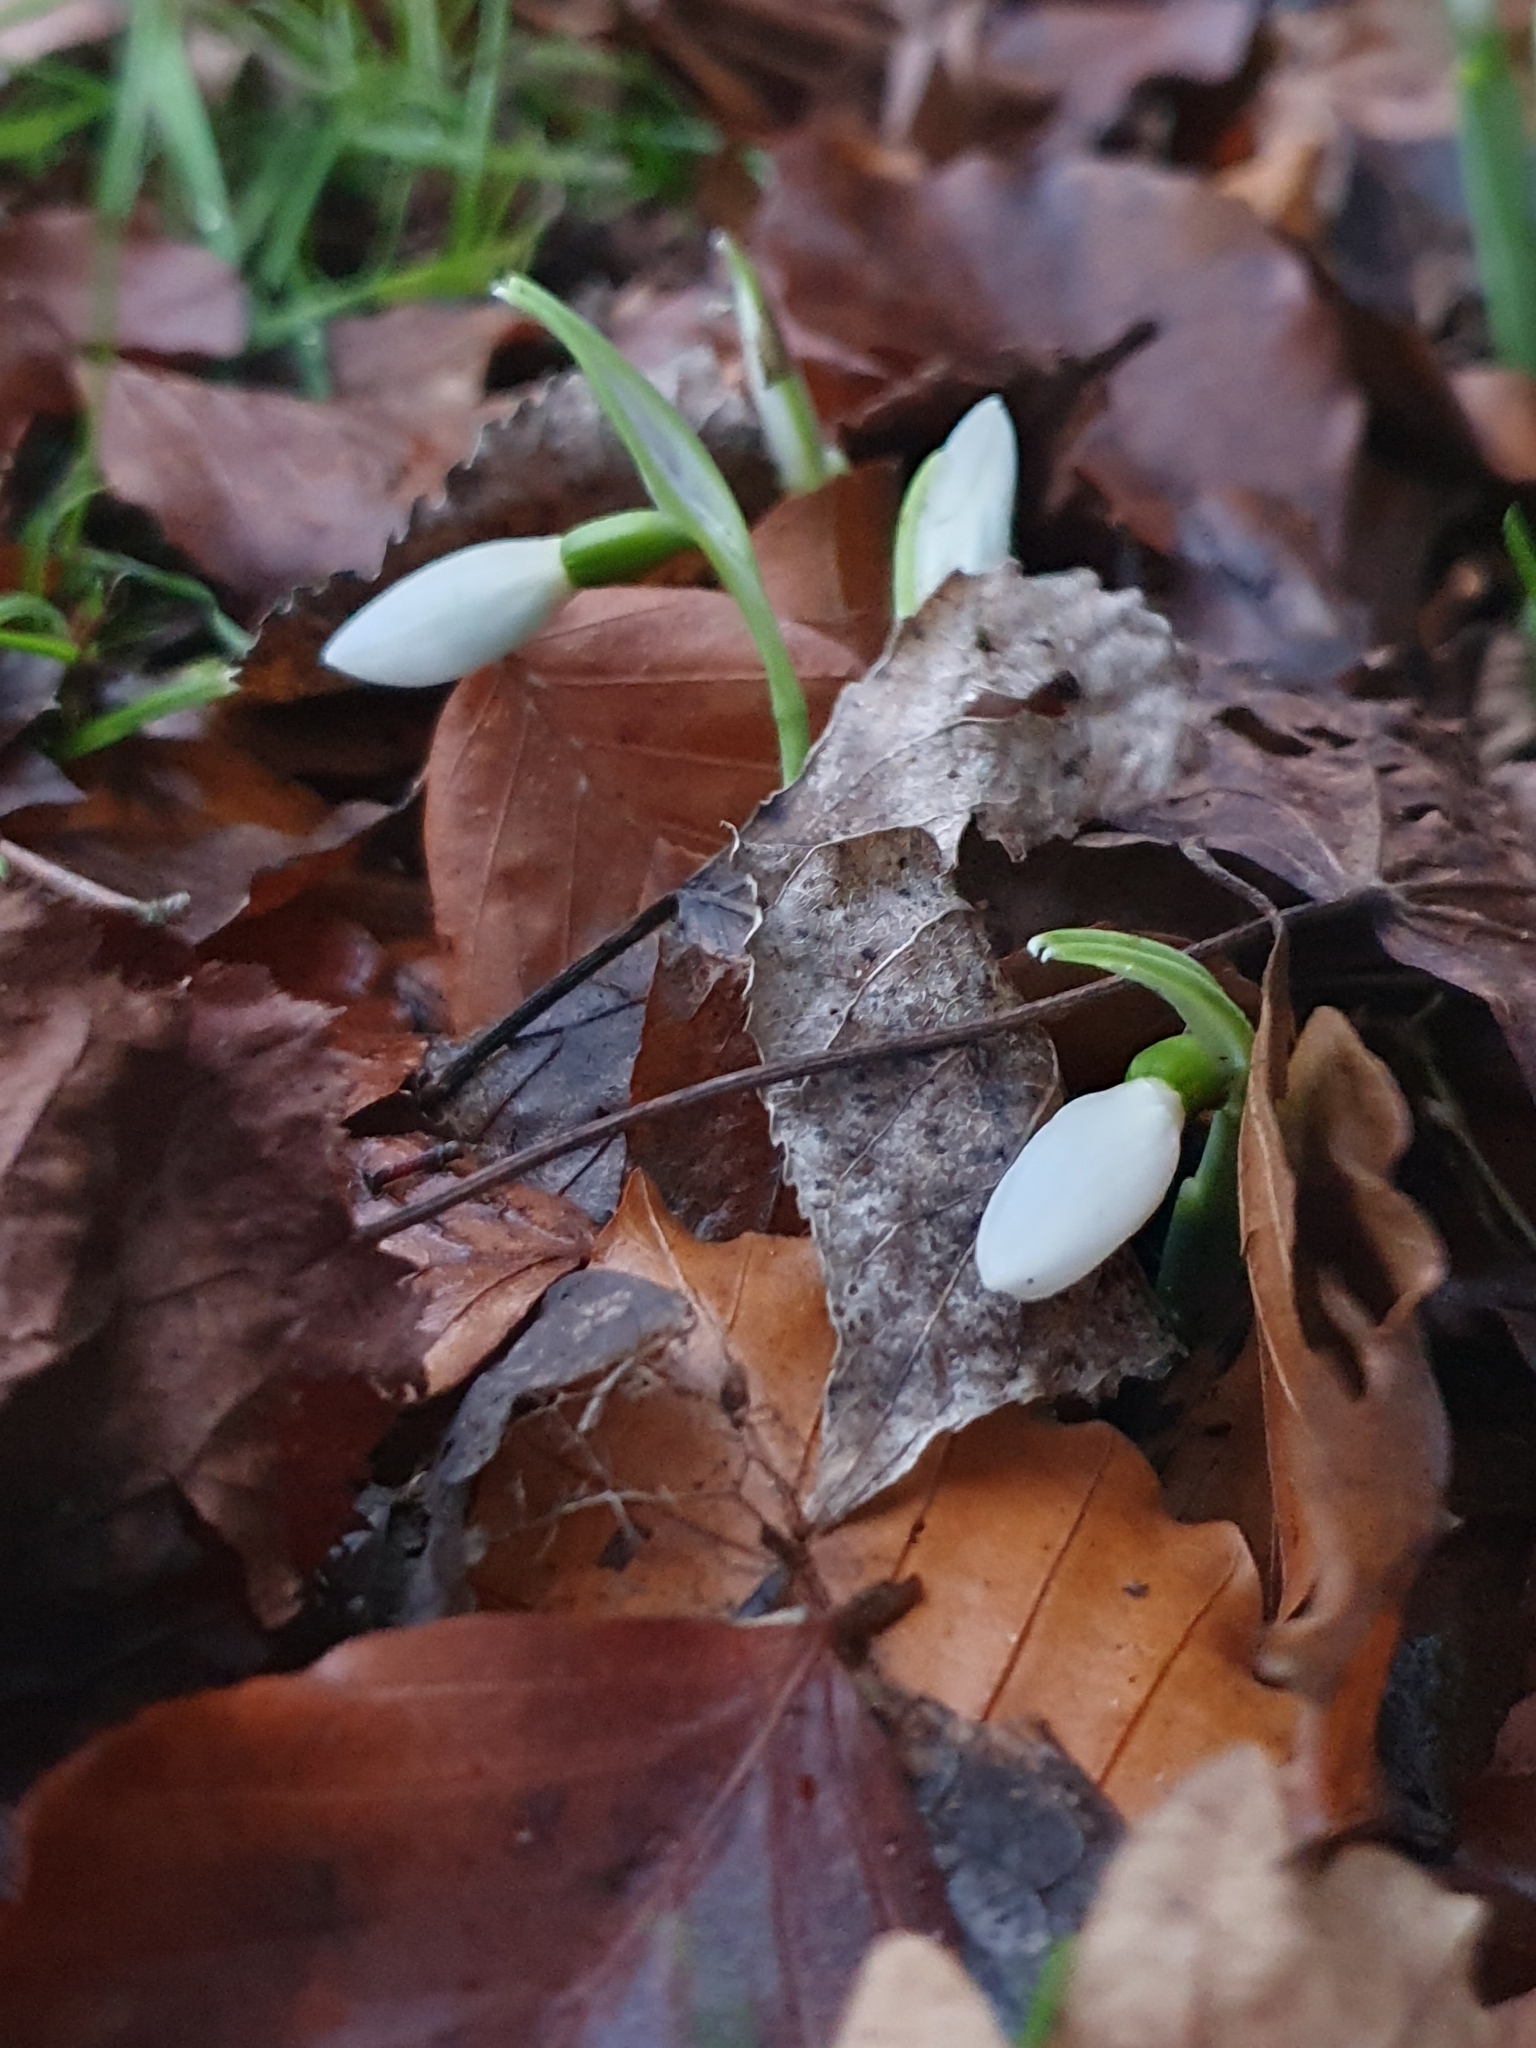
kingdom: Plantae
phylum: Tracheophyta
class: Liliopsida
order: Asparagales
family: Amaryllidaceae
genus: Galanthus
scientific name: Galanthus
